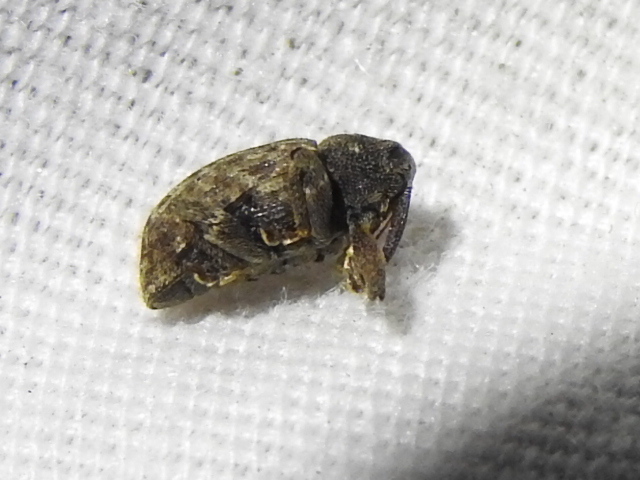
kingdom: Animalia
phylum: Arthropoda
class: Insecta
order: Coleoptera
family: Curculionidae
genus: Conotrachelus
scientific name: Conotrachelus naso
